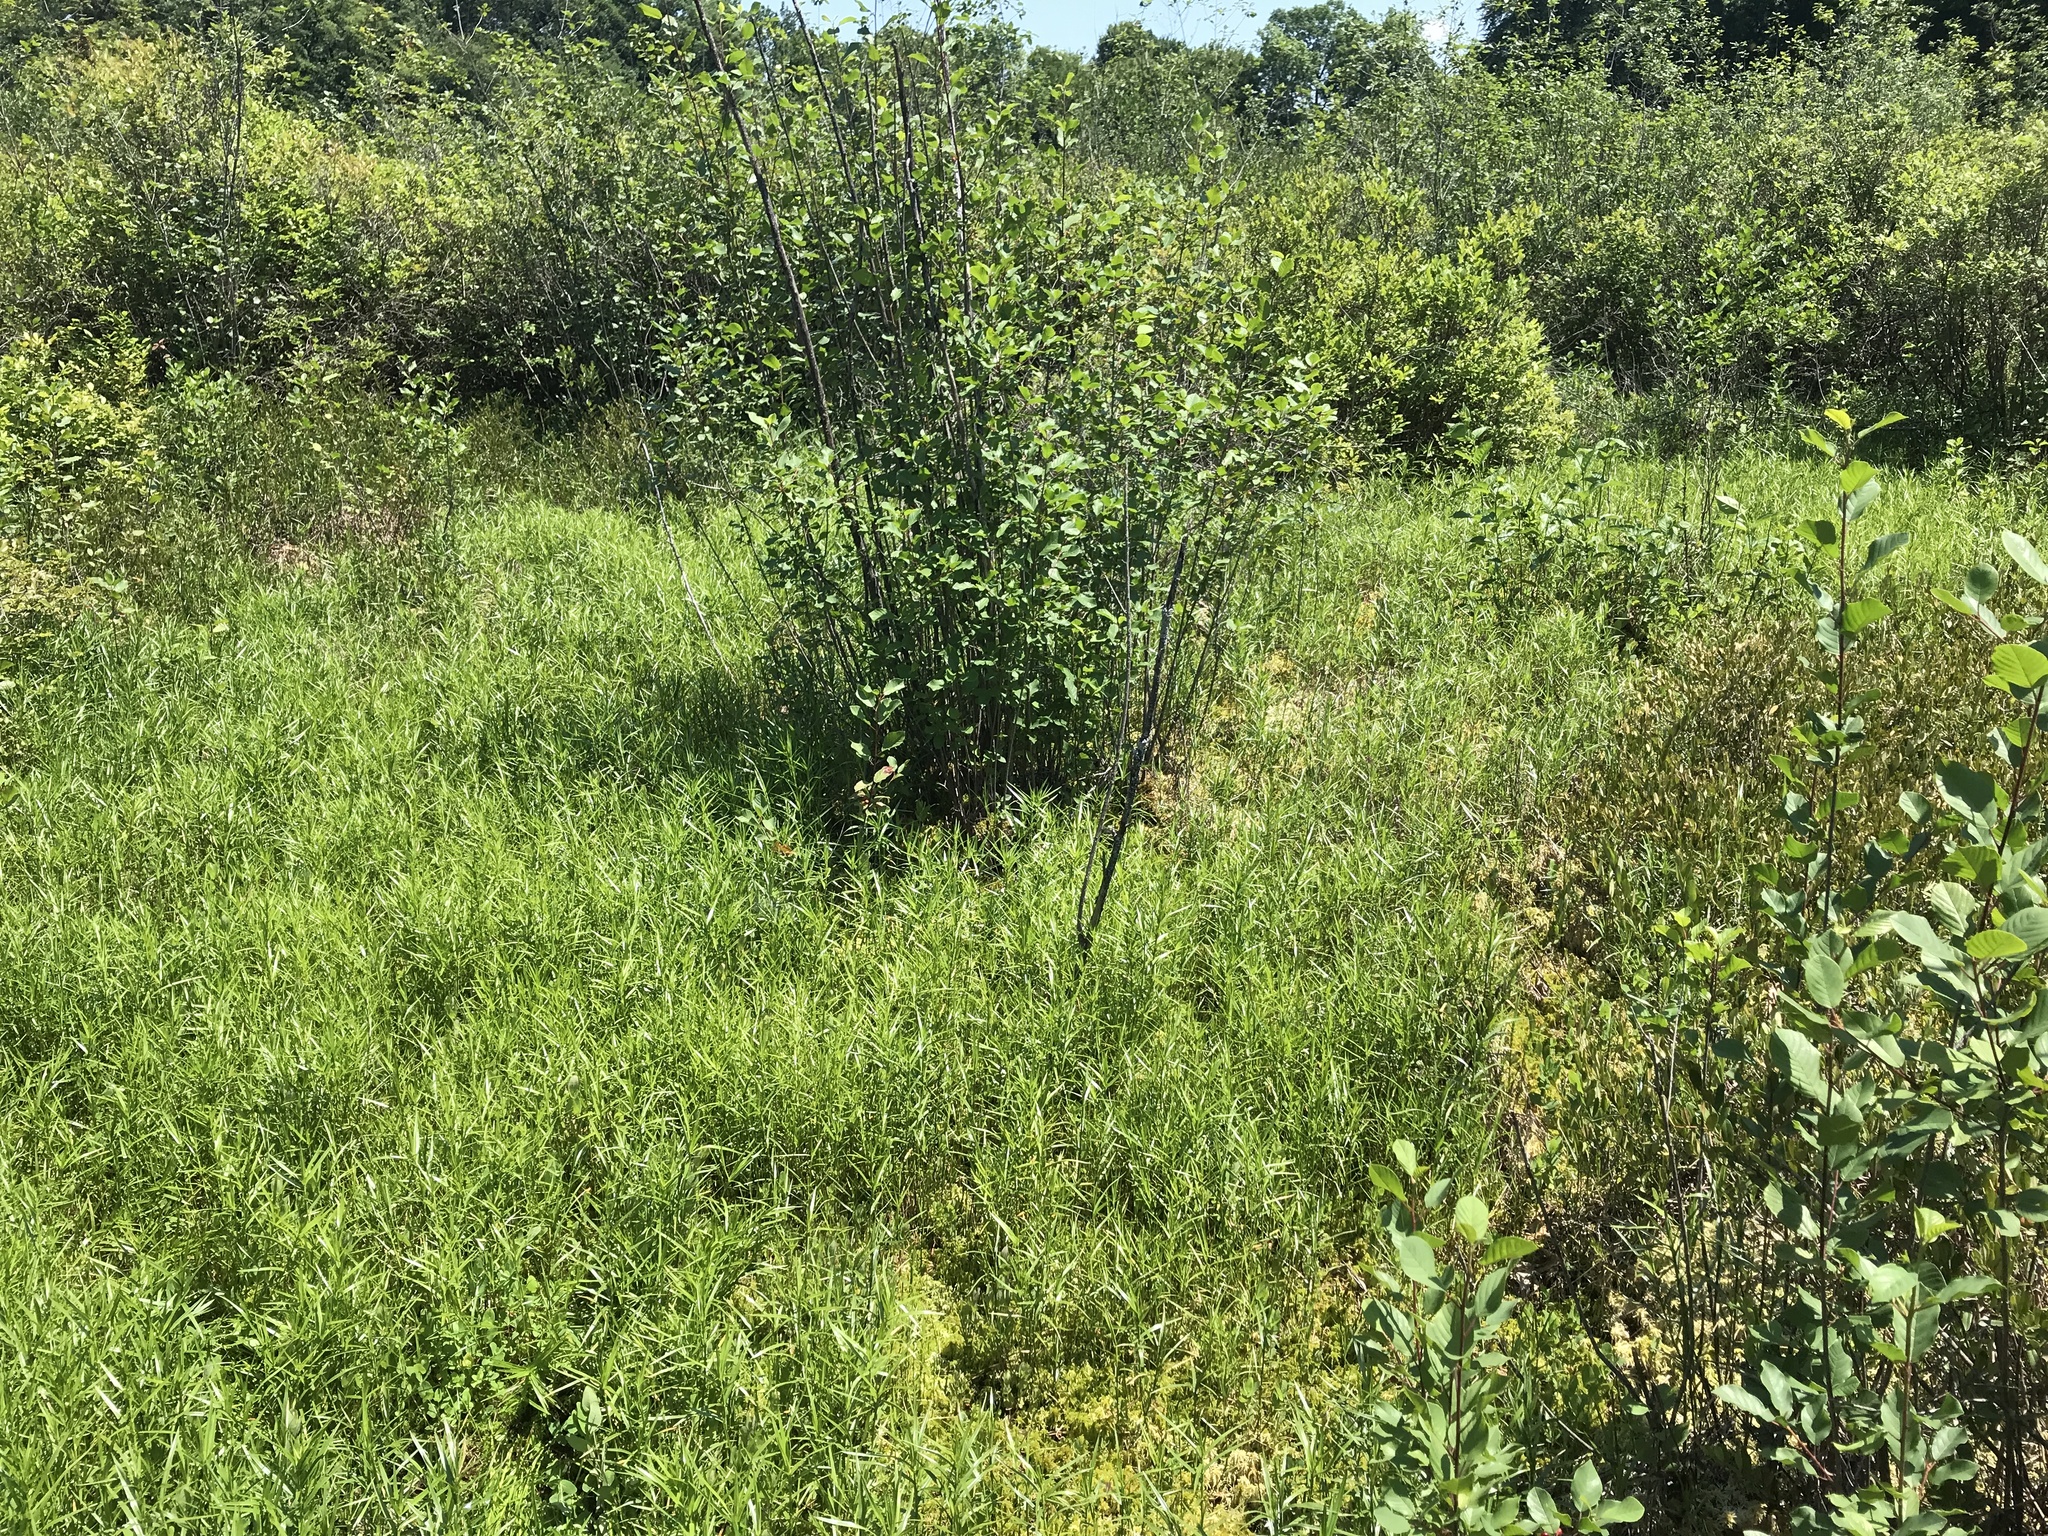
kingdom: Plantae
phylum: Tracheophyta
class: Liliopsida
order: Poales
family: Cyperaceae
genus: Dulichium
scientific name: Dulichium arundinaceum
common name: Three-way sedge
